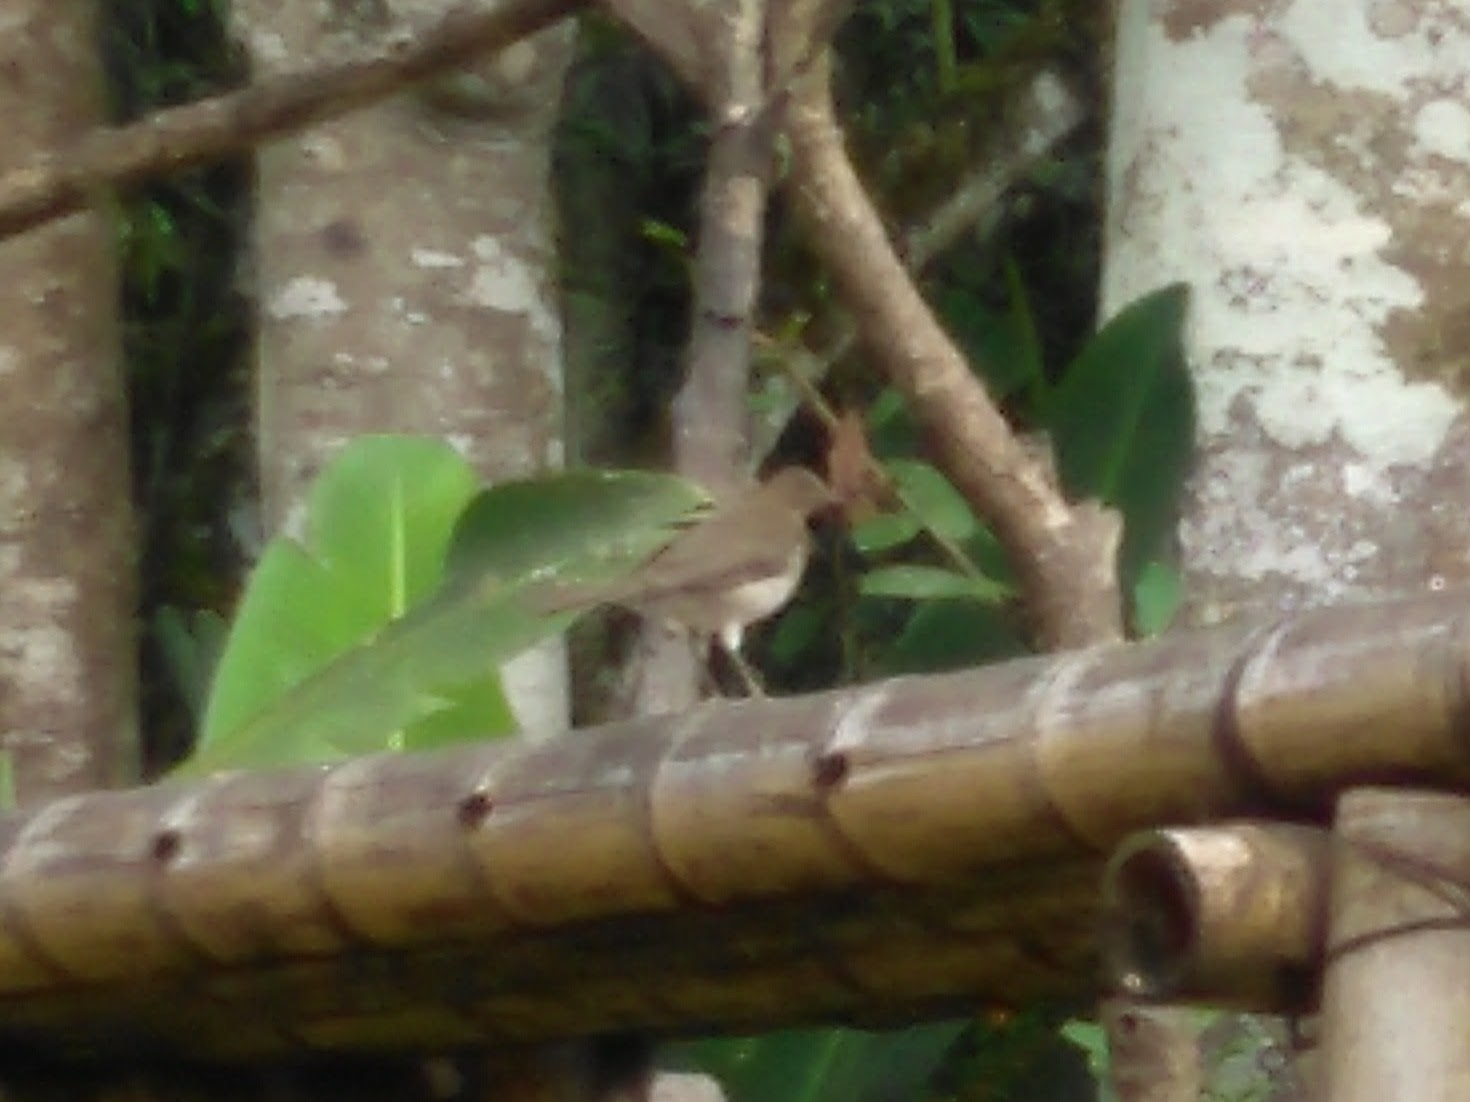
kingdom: Animalia
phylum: Chordata
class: Aves
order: Passeriformes
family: Turdidae
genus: Turdus
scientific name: Turdus ignobilis
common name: Black-billed thrush
